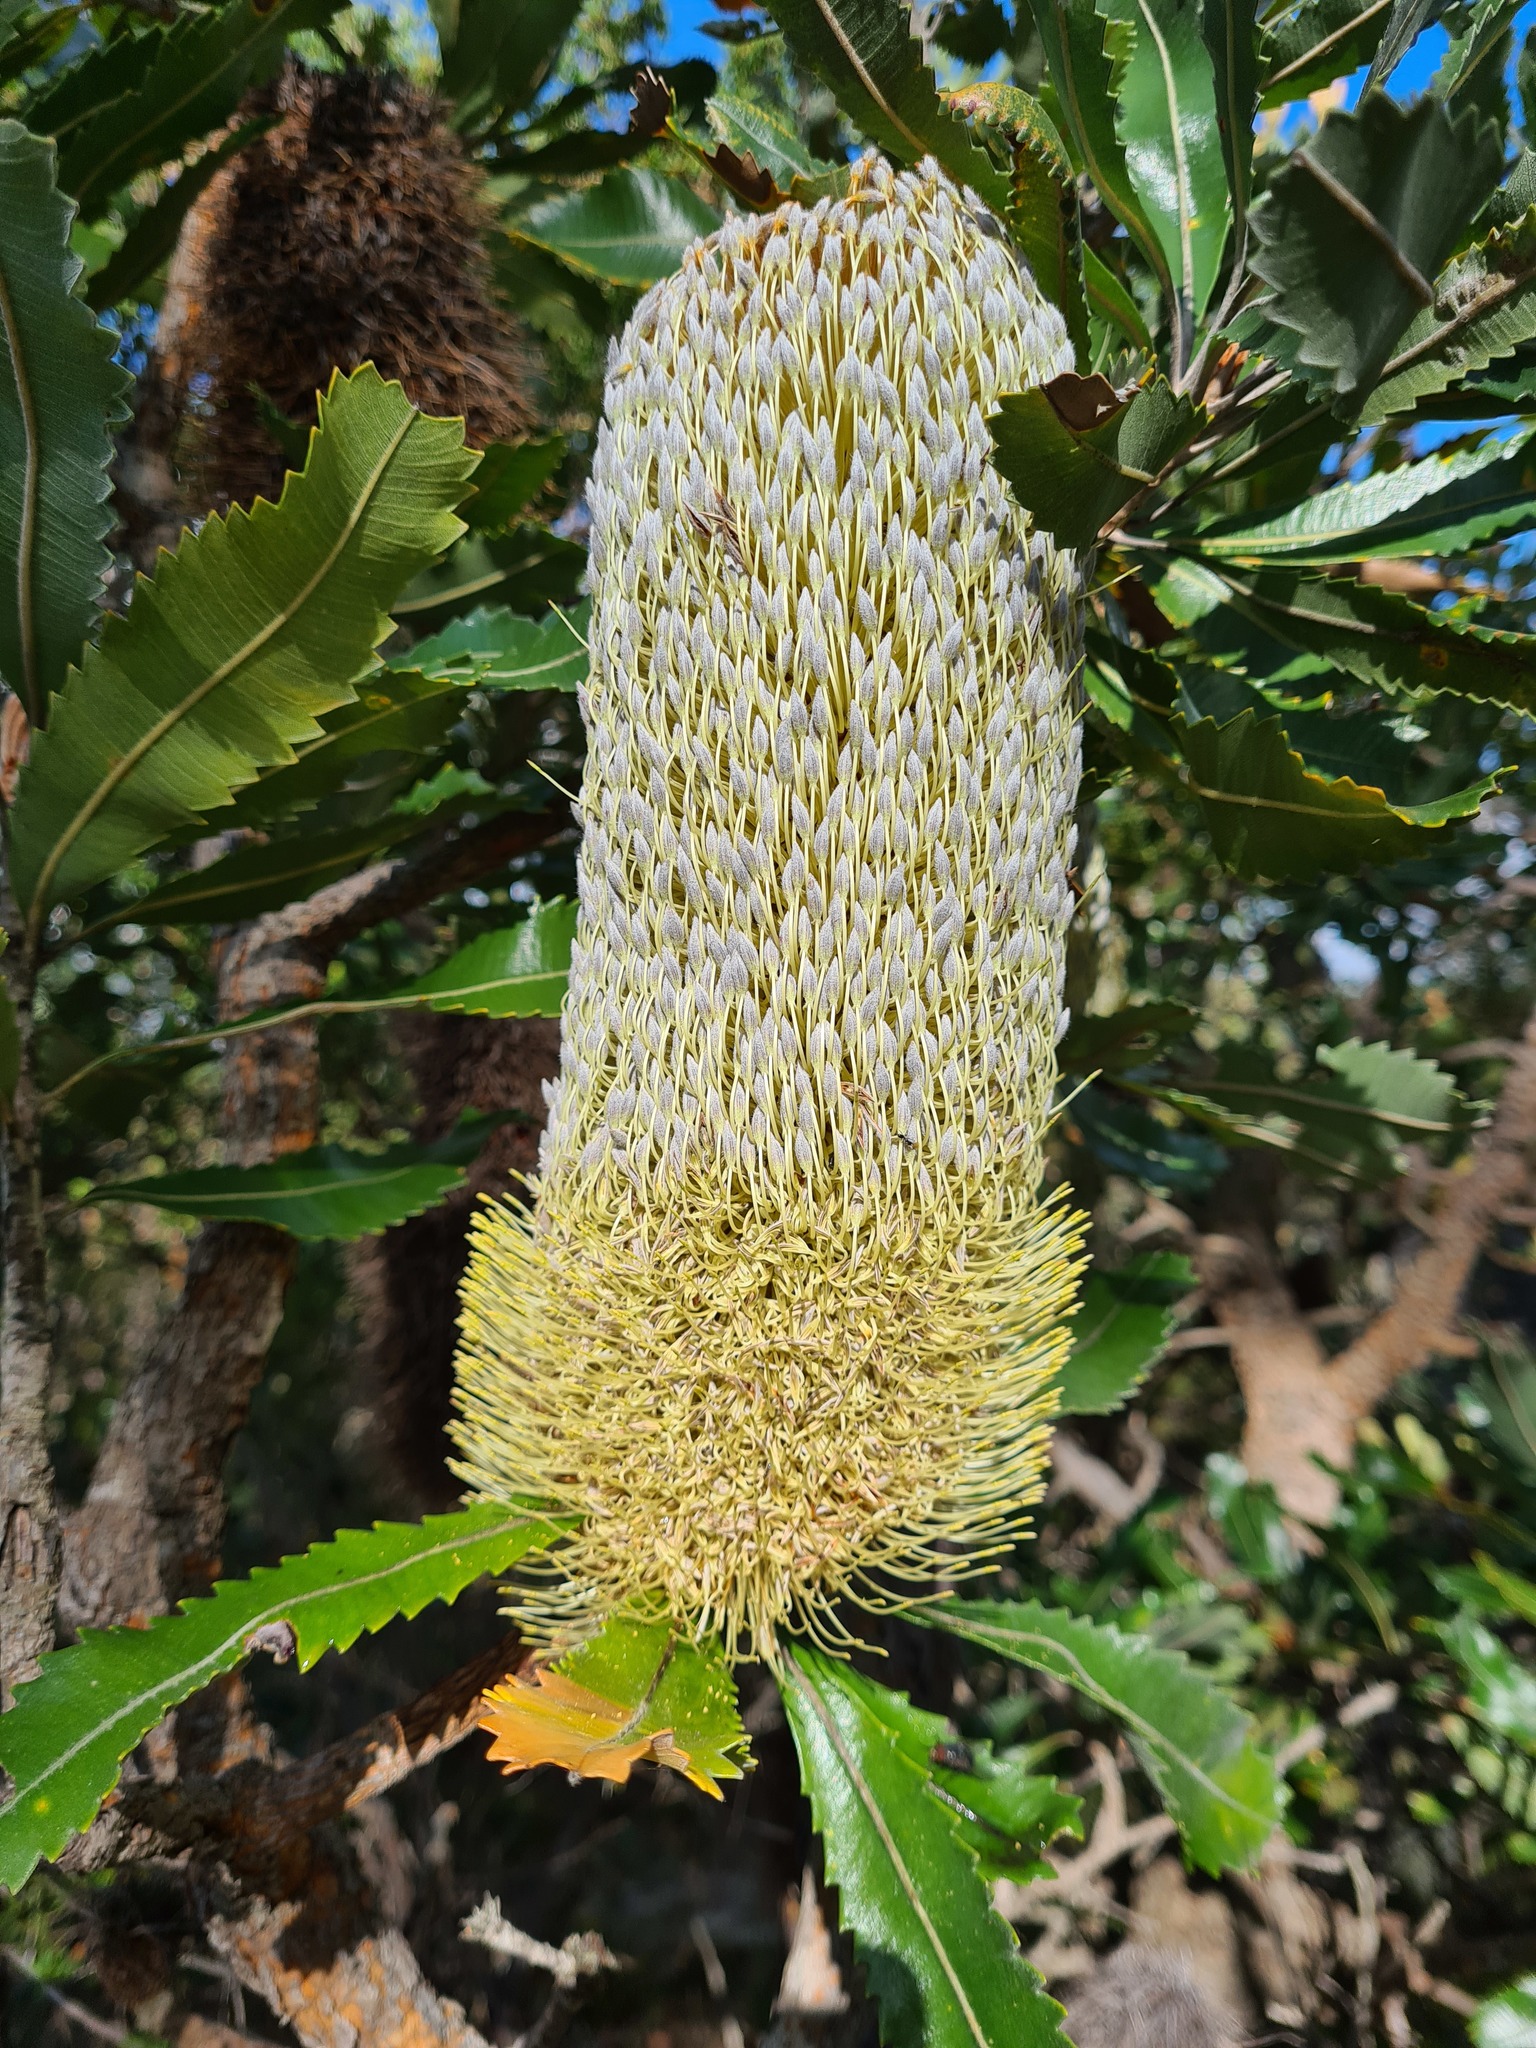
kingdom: Plantae
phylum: Tracheophyta
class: Magnoliopsida
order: Proteales
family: Proteaceae
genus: Banksia
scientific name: Banksia serrata
